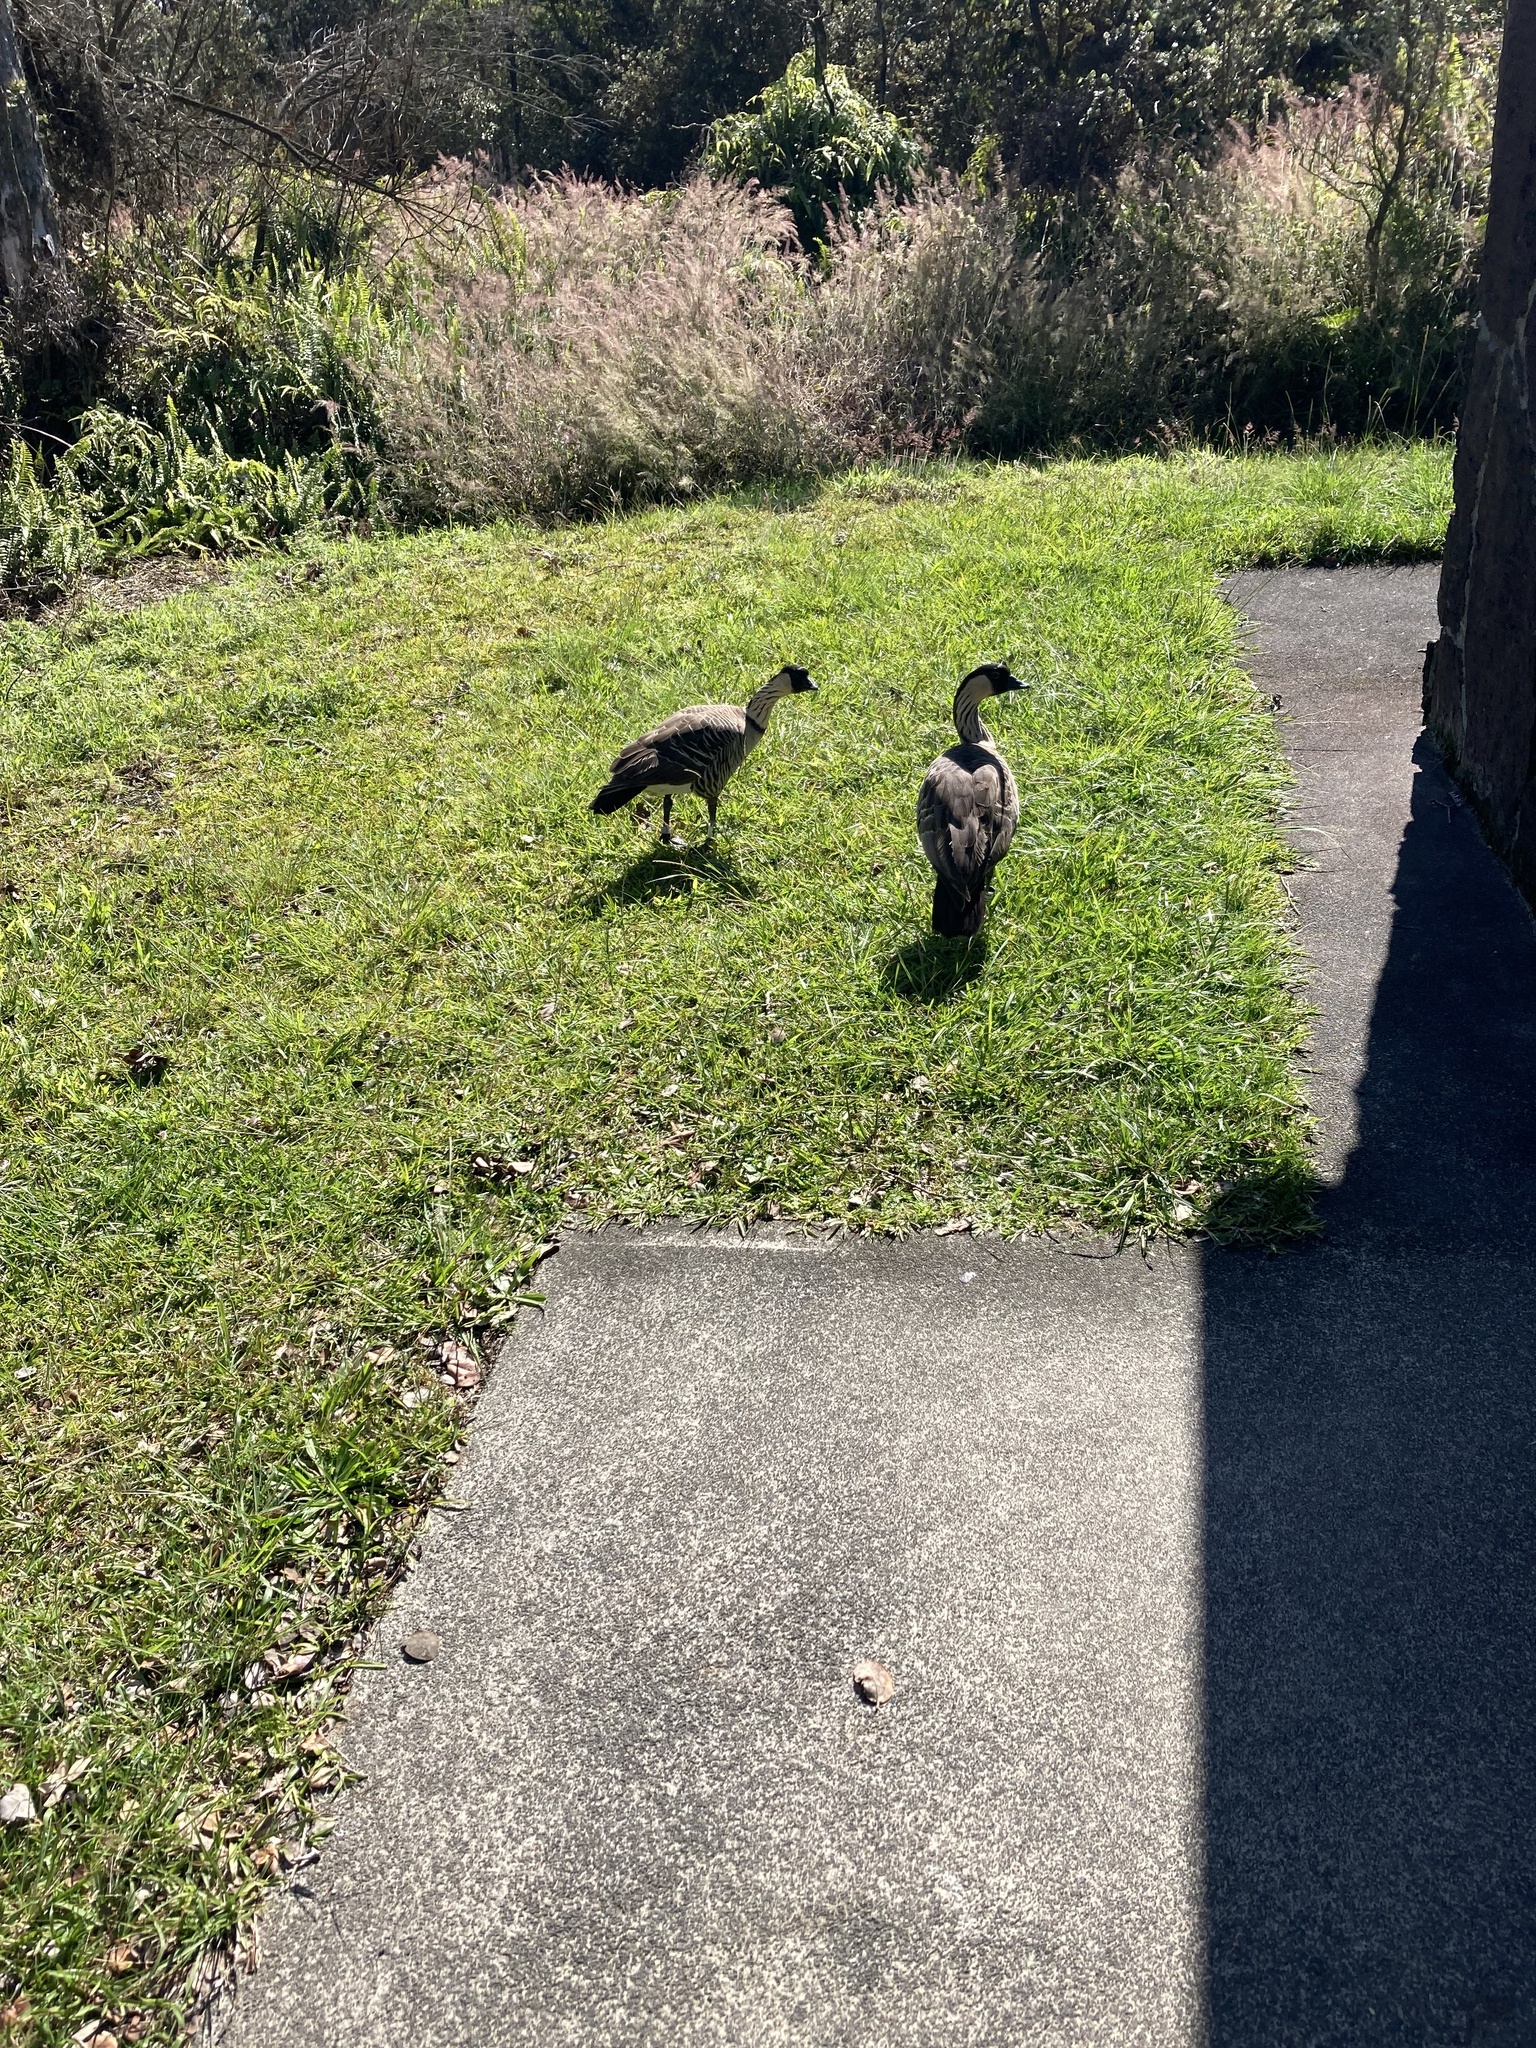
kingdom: Animalia
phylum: Chordata
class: Aves
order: Anseriformes
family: Anatidae
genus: Branta
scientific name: Branta sandvicensis
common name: Nene
